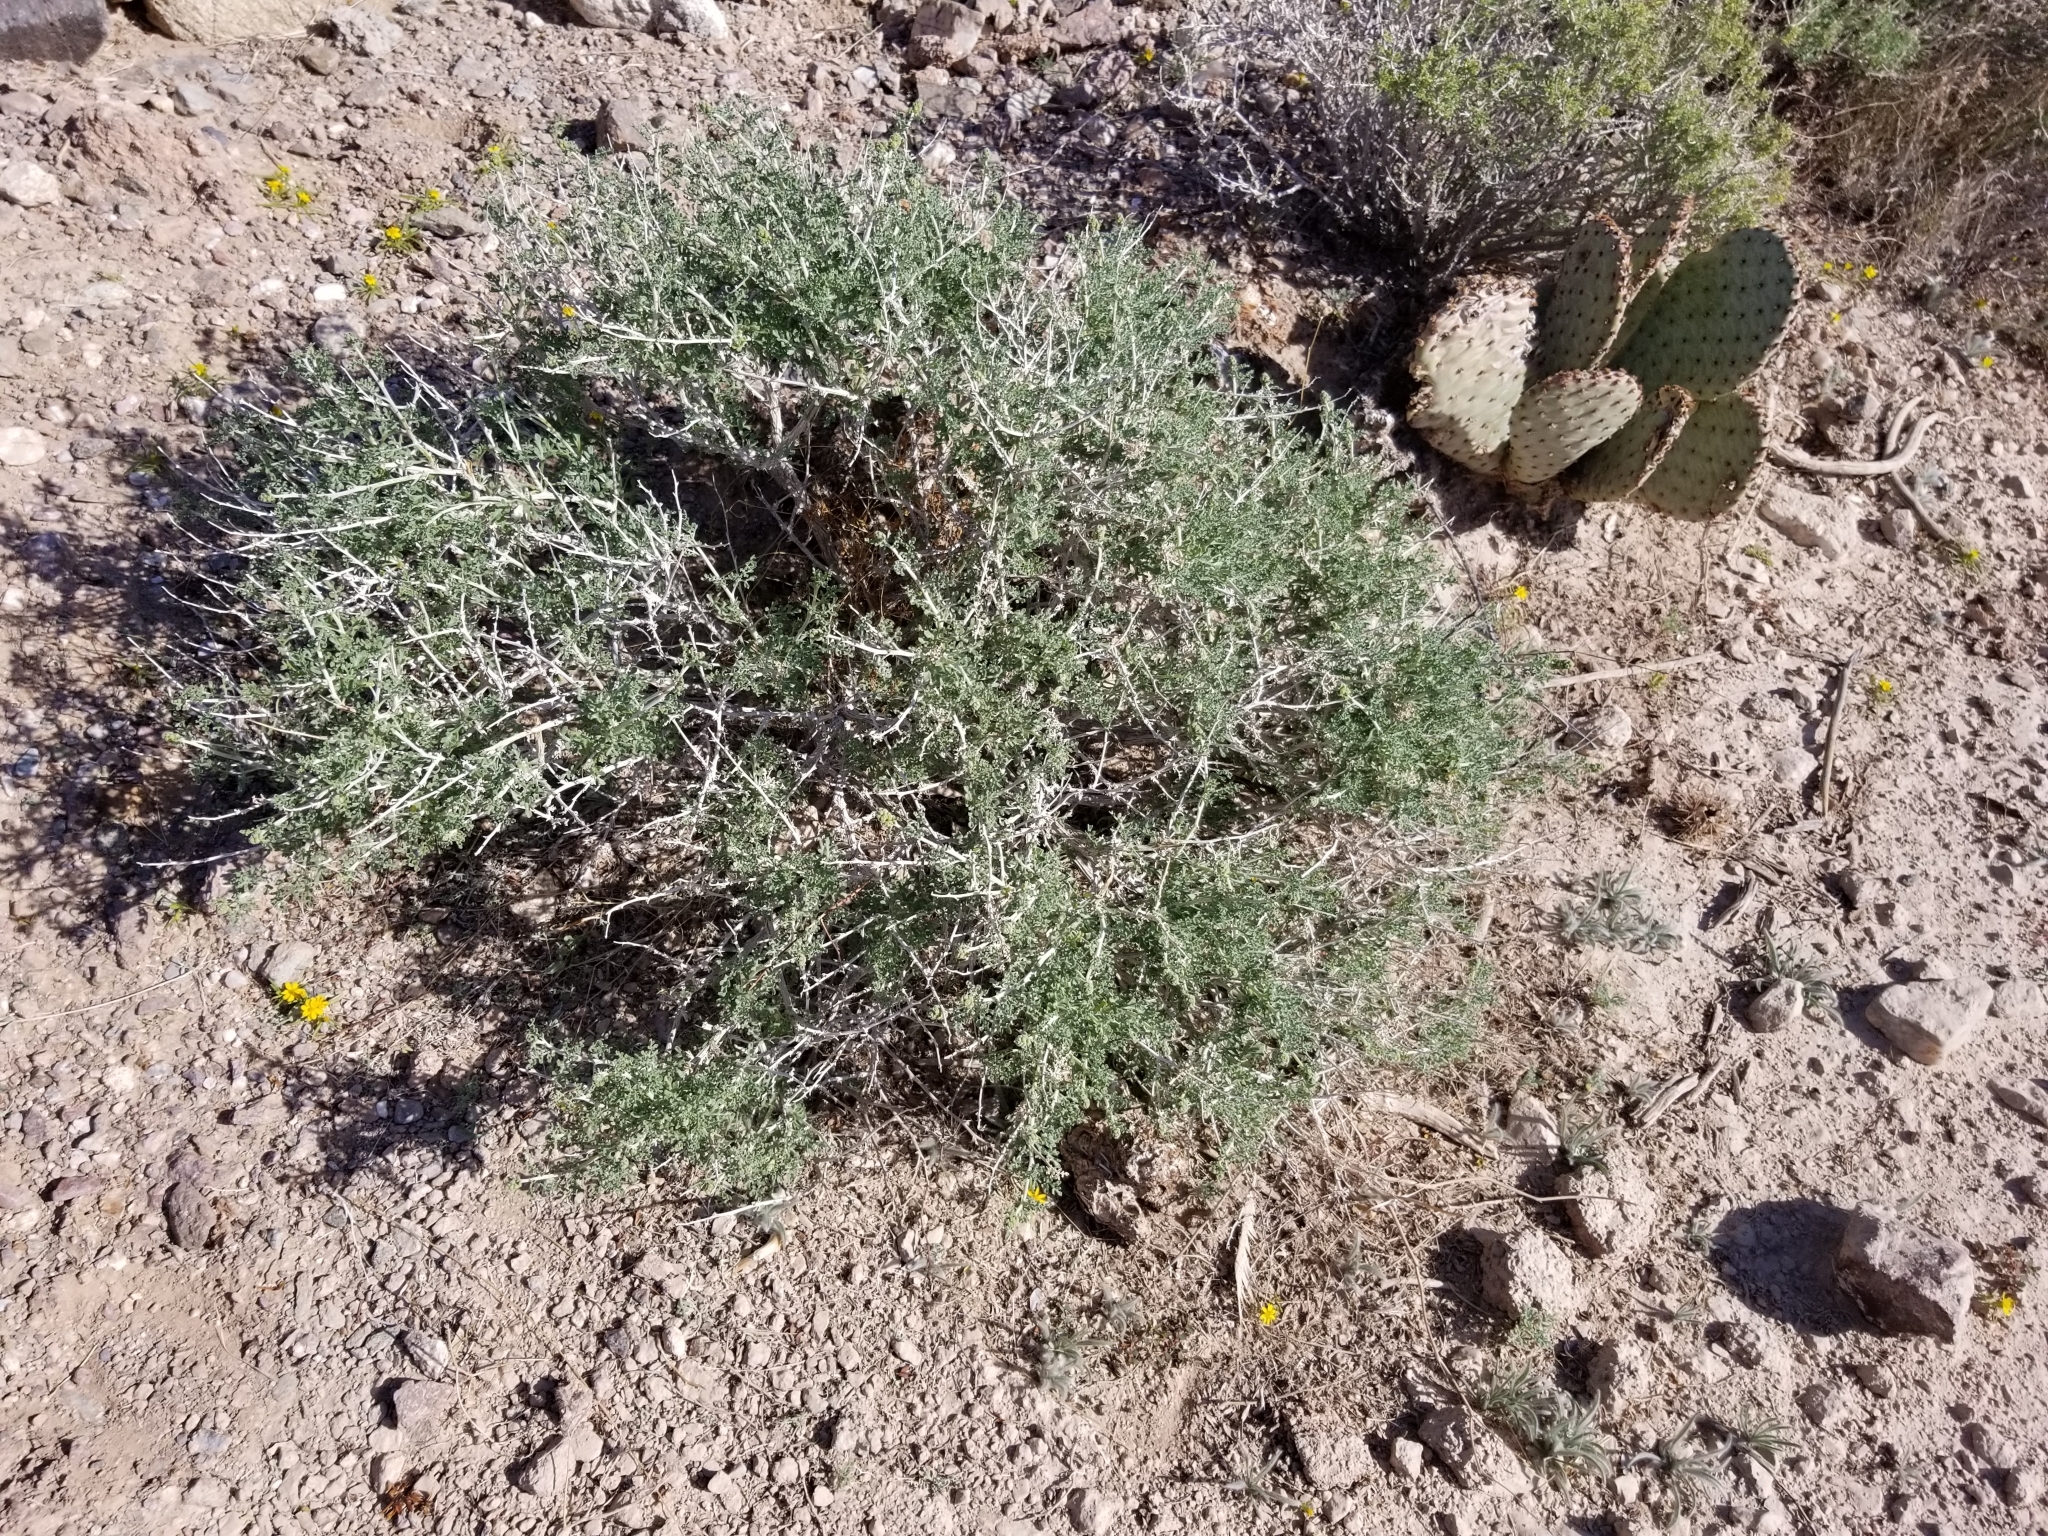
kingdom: Plantae
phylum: Tracheophyta
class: Magnoliopsida
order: Asterales
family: Asteraceae
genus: Ambrosia
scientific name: Ambrosia dumosa
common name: Bur-sage
